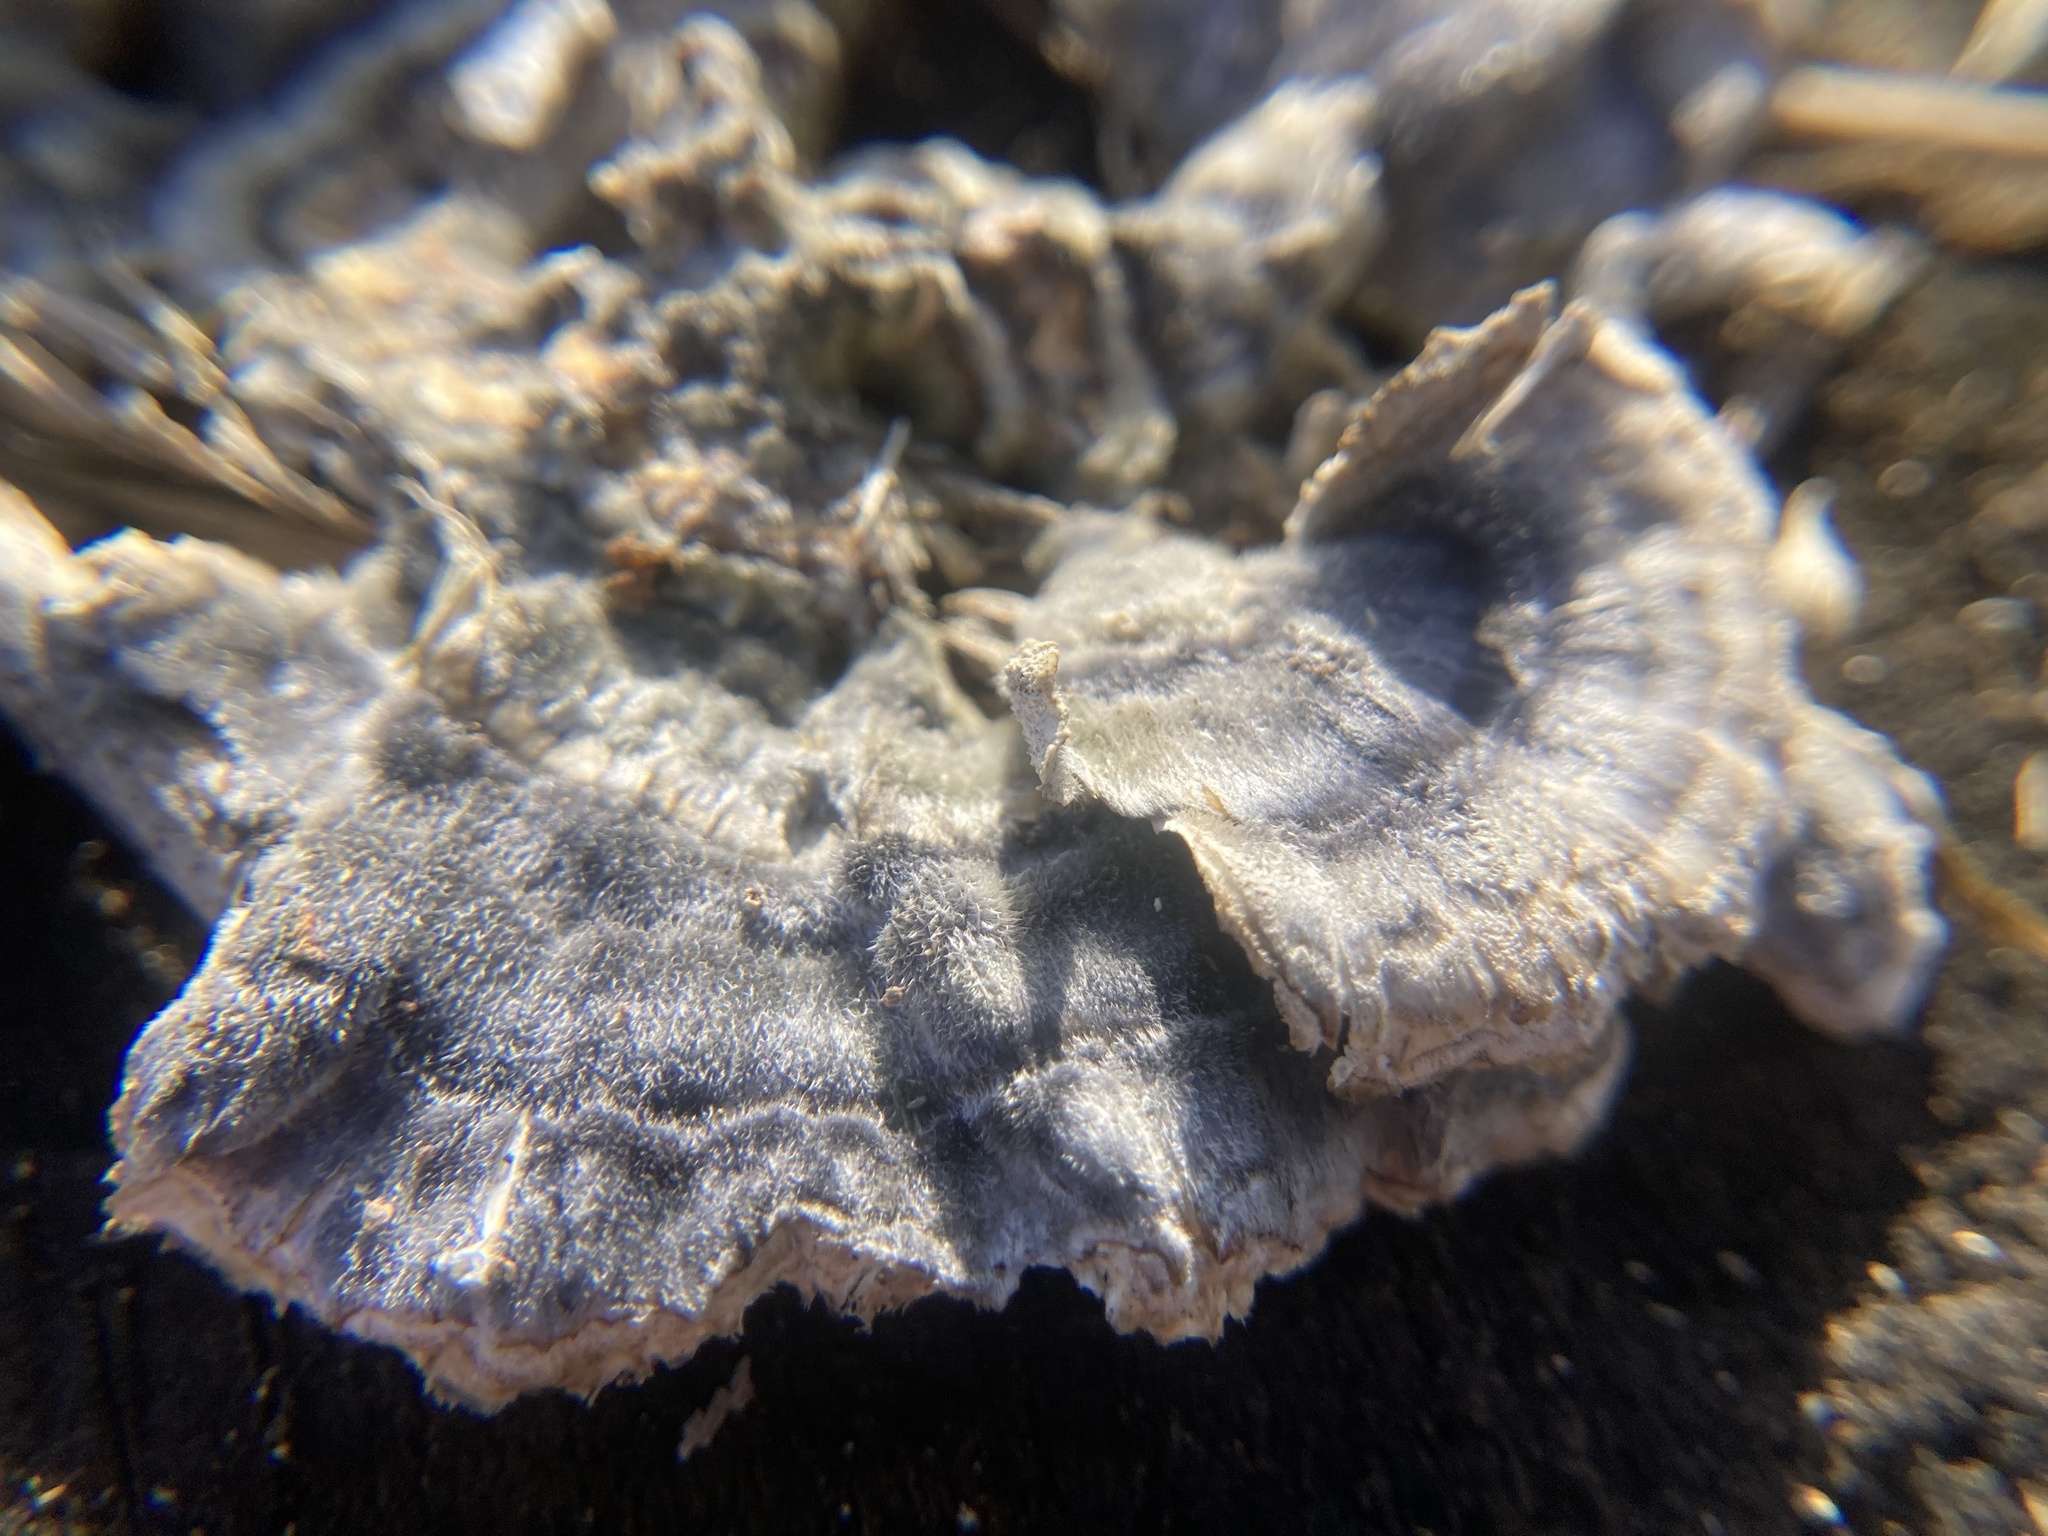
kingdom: Fungi
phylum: Basidiomycota
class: Agaricomycetes
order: Polyporales
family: Polyporaceae
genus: Trametes
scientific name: Trametes versicolor
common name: Turkeytail
